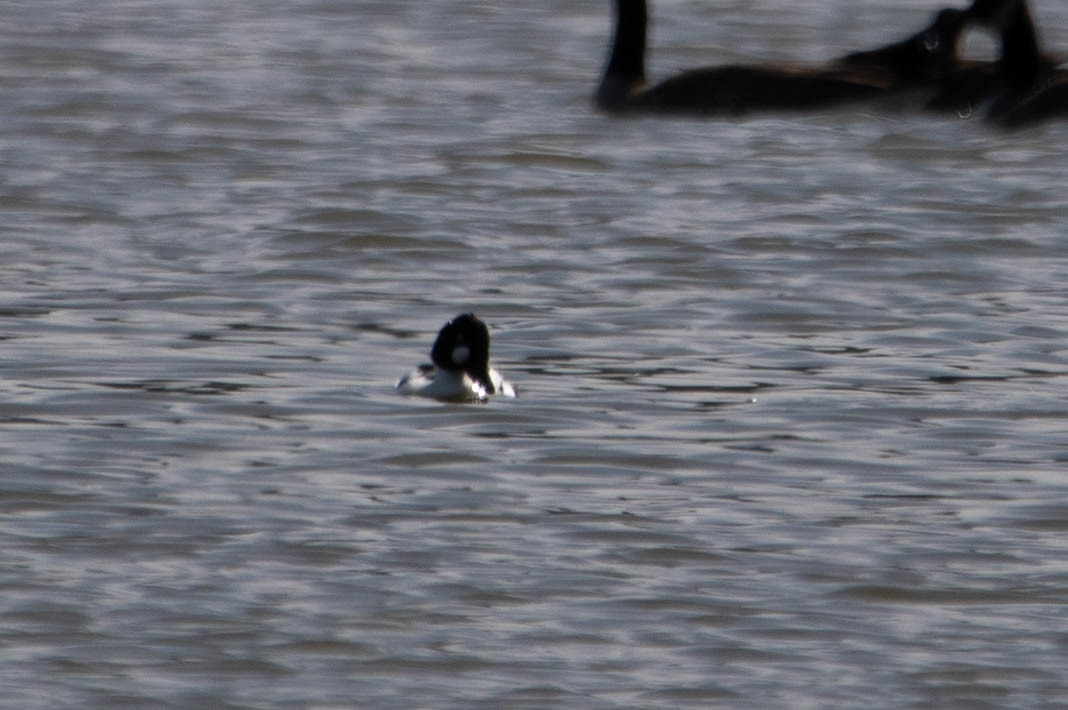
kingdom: Animalia
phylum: Chordata
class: Aves
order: Anseriformes
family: Anatidae
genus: Bucephala
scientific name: Bucephala clangula
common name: Common goldeneye
